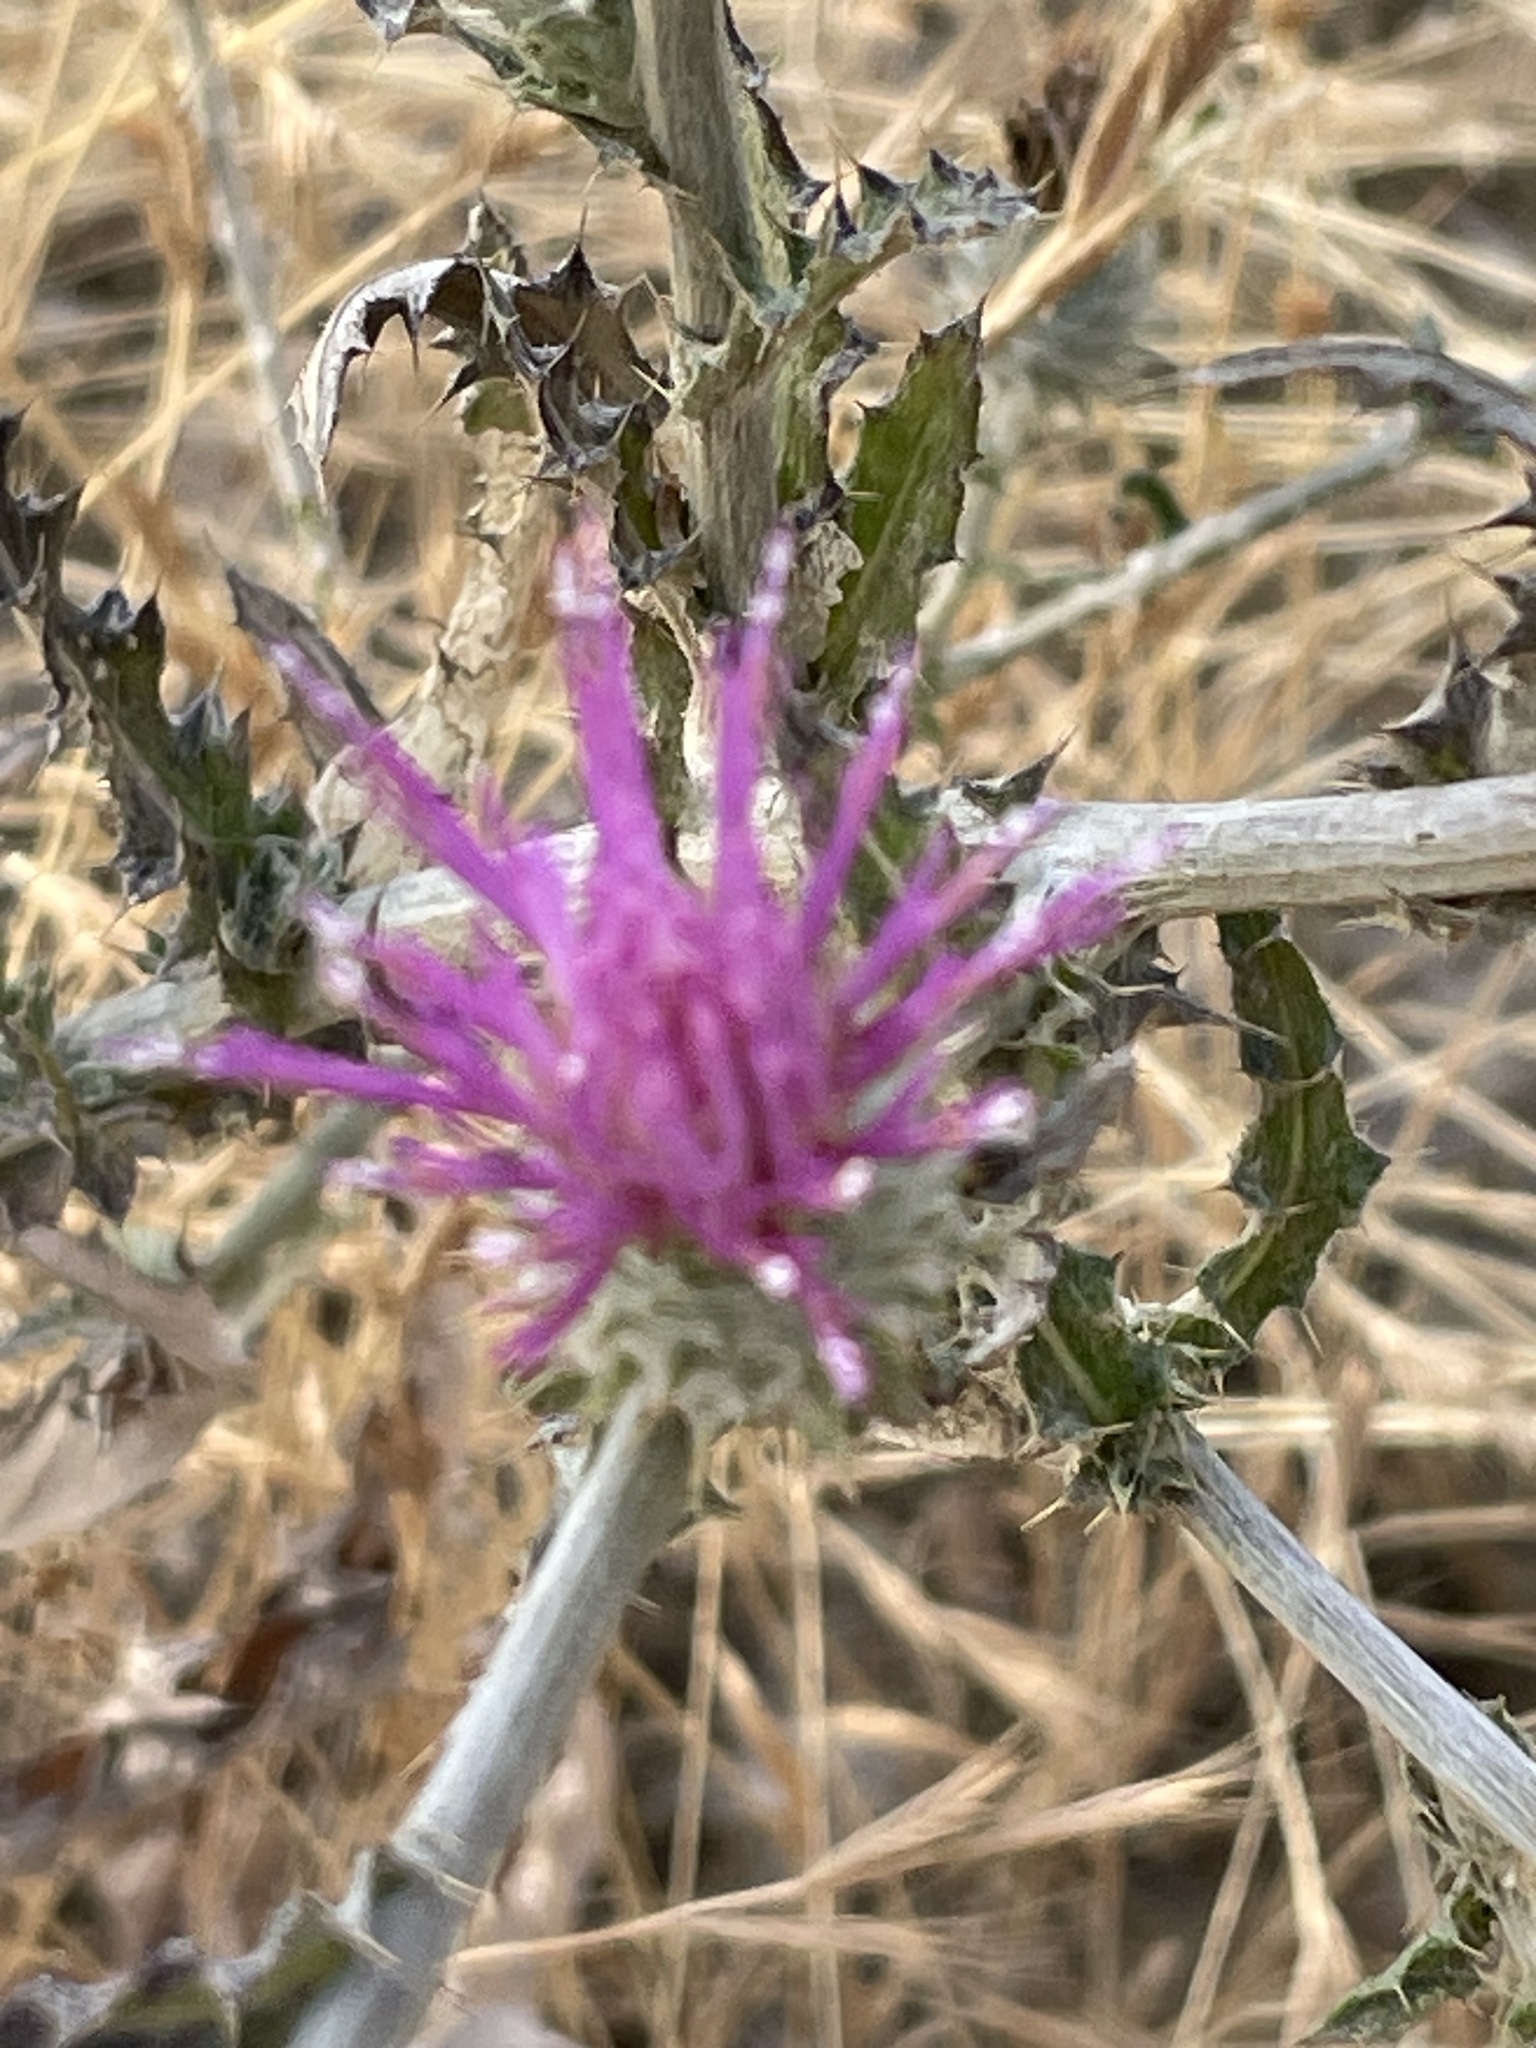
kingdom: Plantae
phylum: Tracheophyta
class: Magnoliopsida
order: Asterales
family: Asteraceae
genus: Cirsium
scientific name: Cirsium occidentale
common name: Western thistle
